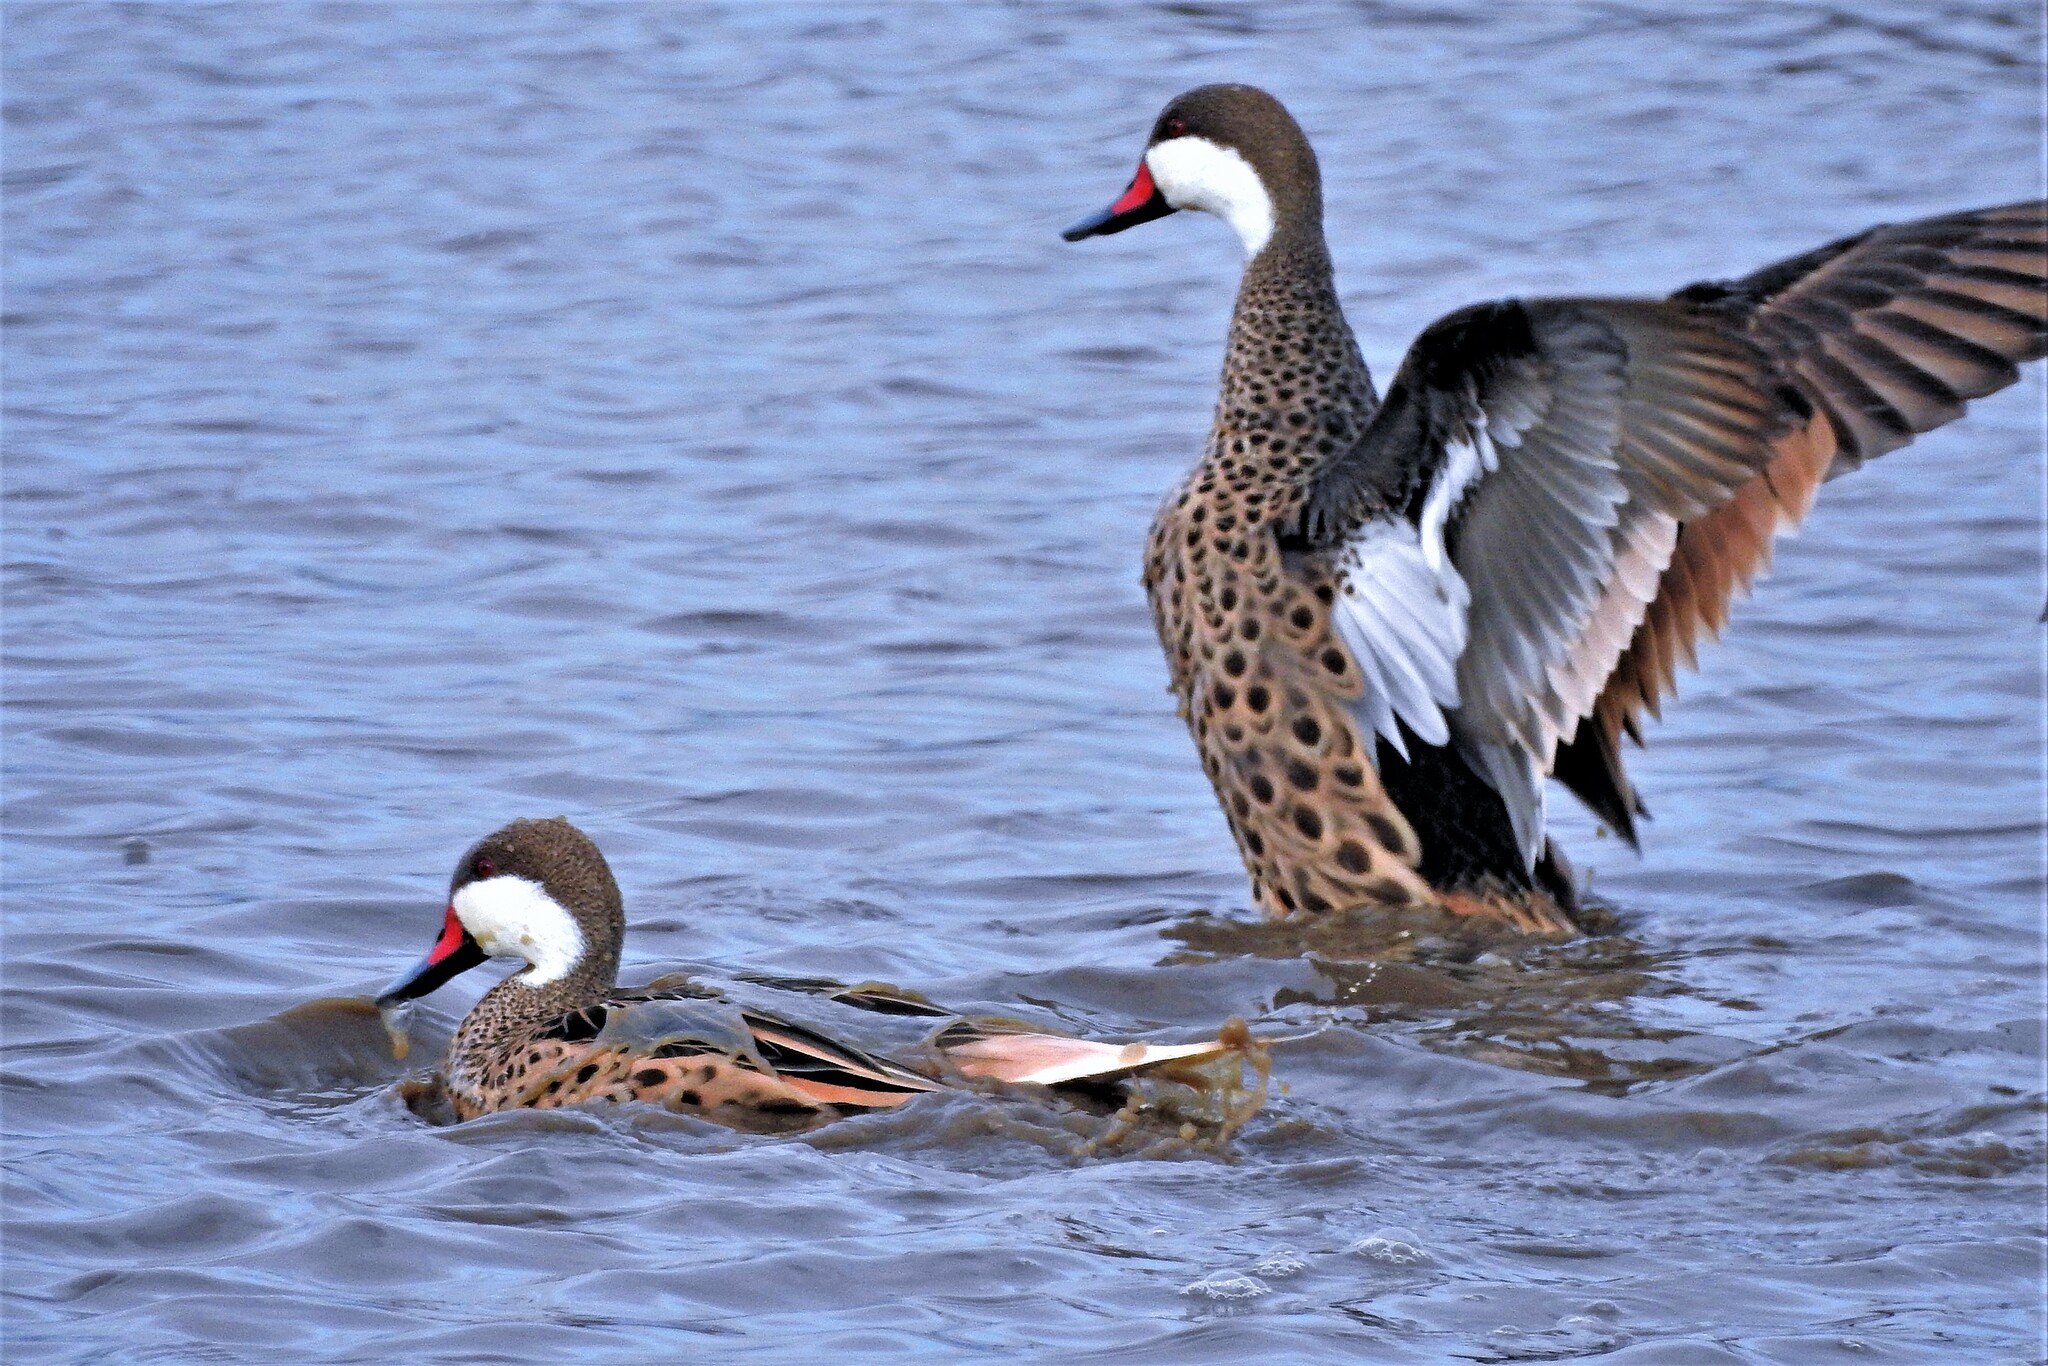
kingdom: Animalia
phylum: Chordata
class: Aves
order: Anseriformes
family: Anatidae
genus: Anas
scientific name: Anas bahamensis
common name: White-cheeked pintail
